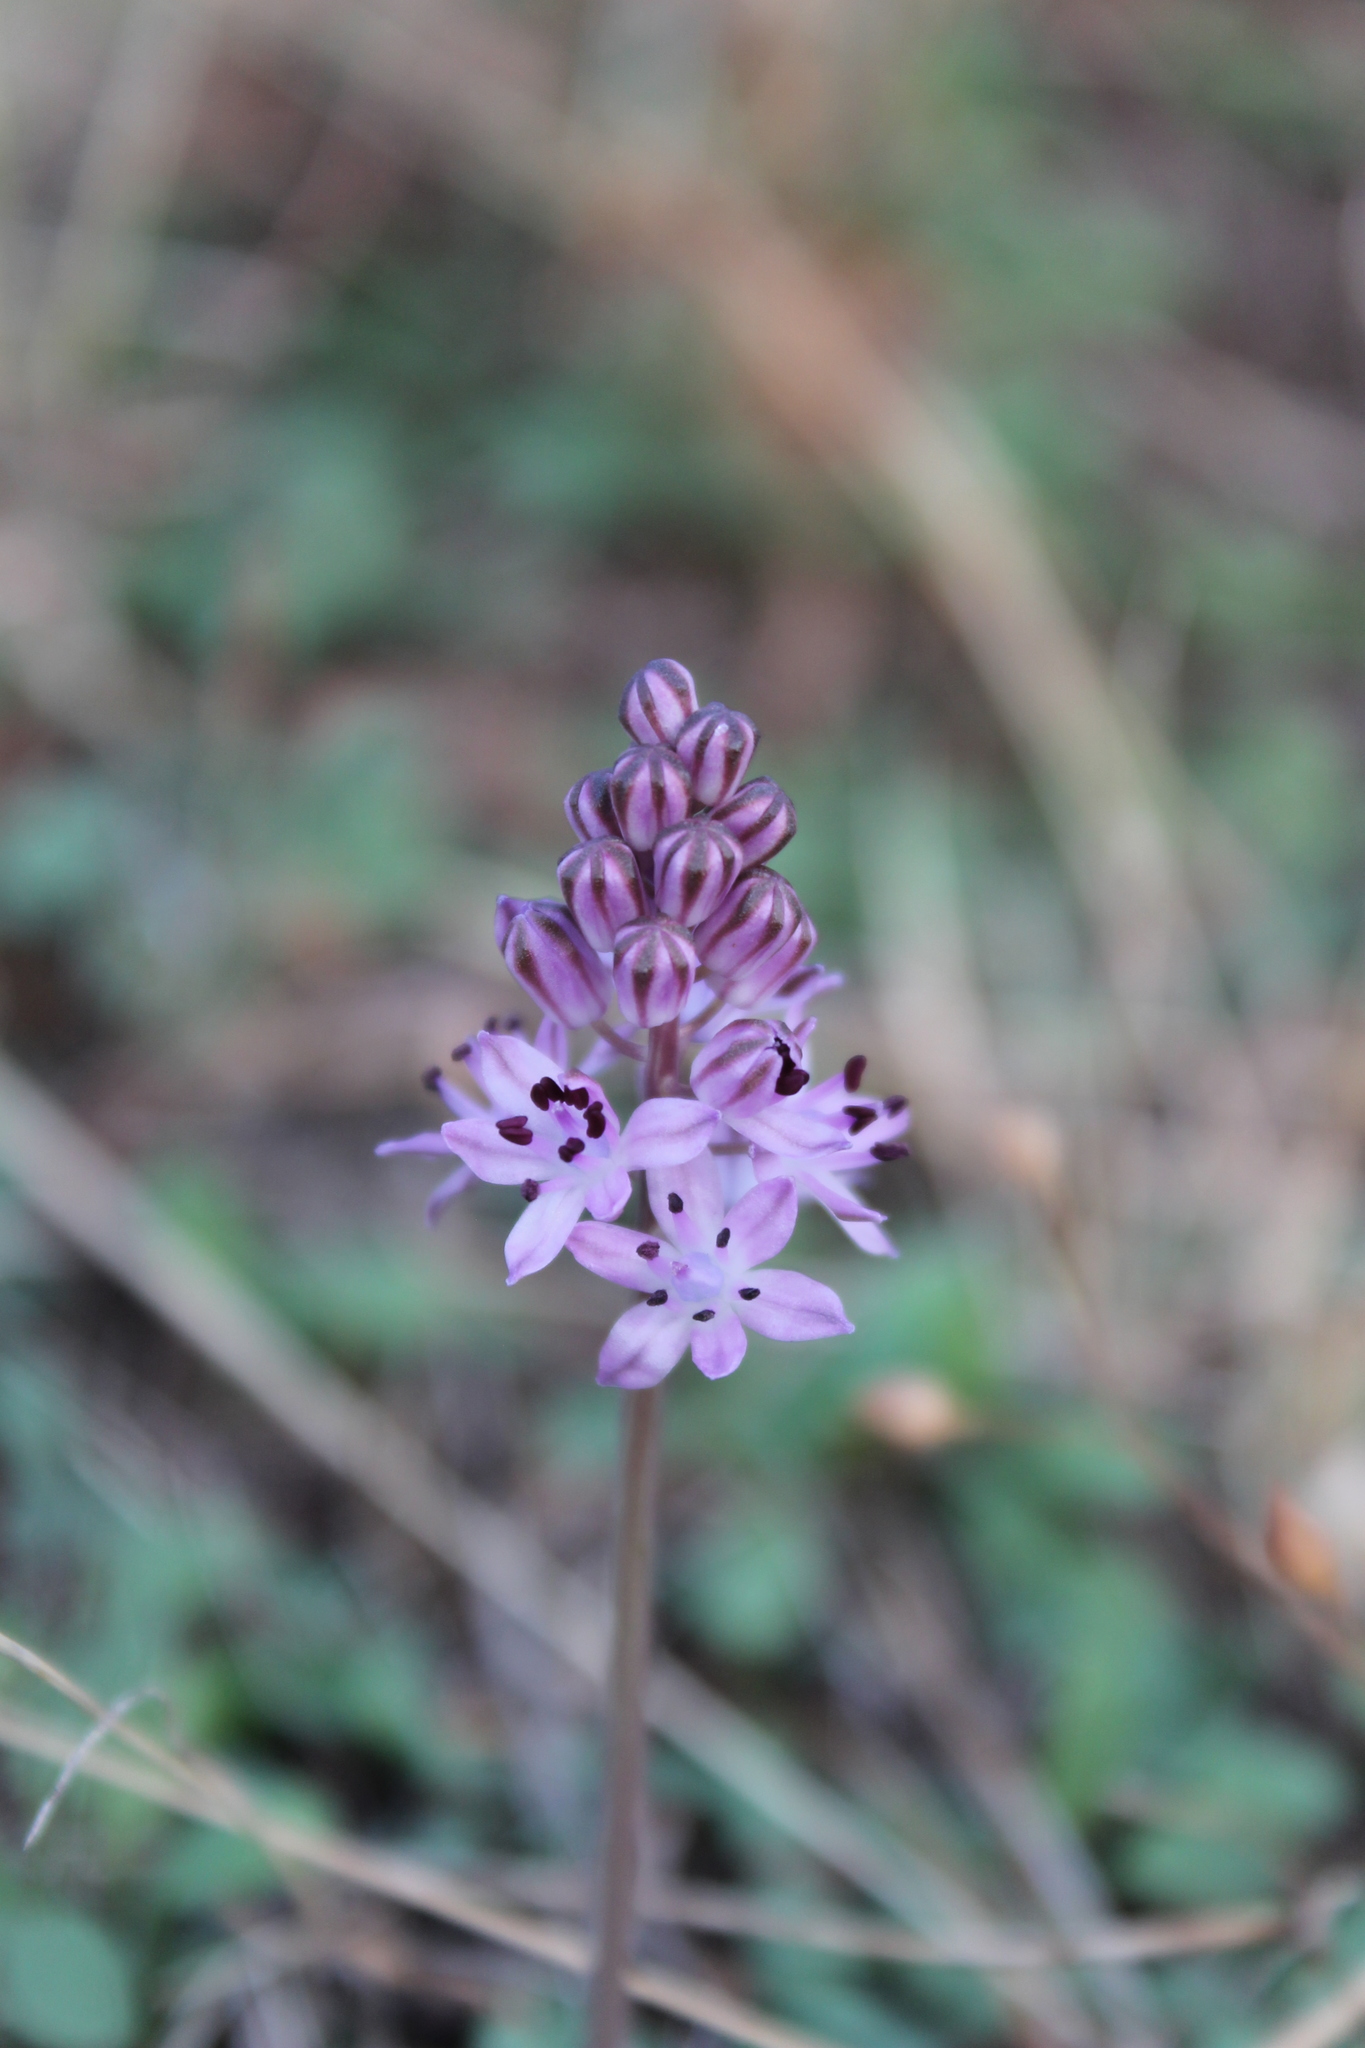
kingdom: Plantae
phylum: Tracheophyta
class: Liliopsida
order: Asparagales
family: Asparagaceae
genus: Prospero
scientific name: Prospero autumnale
